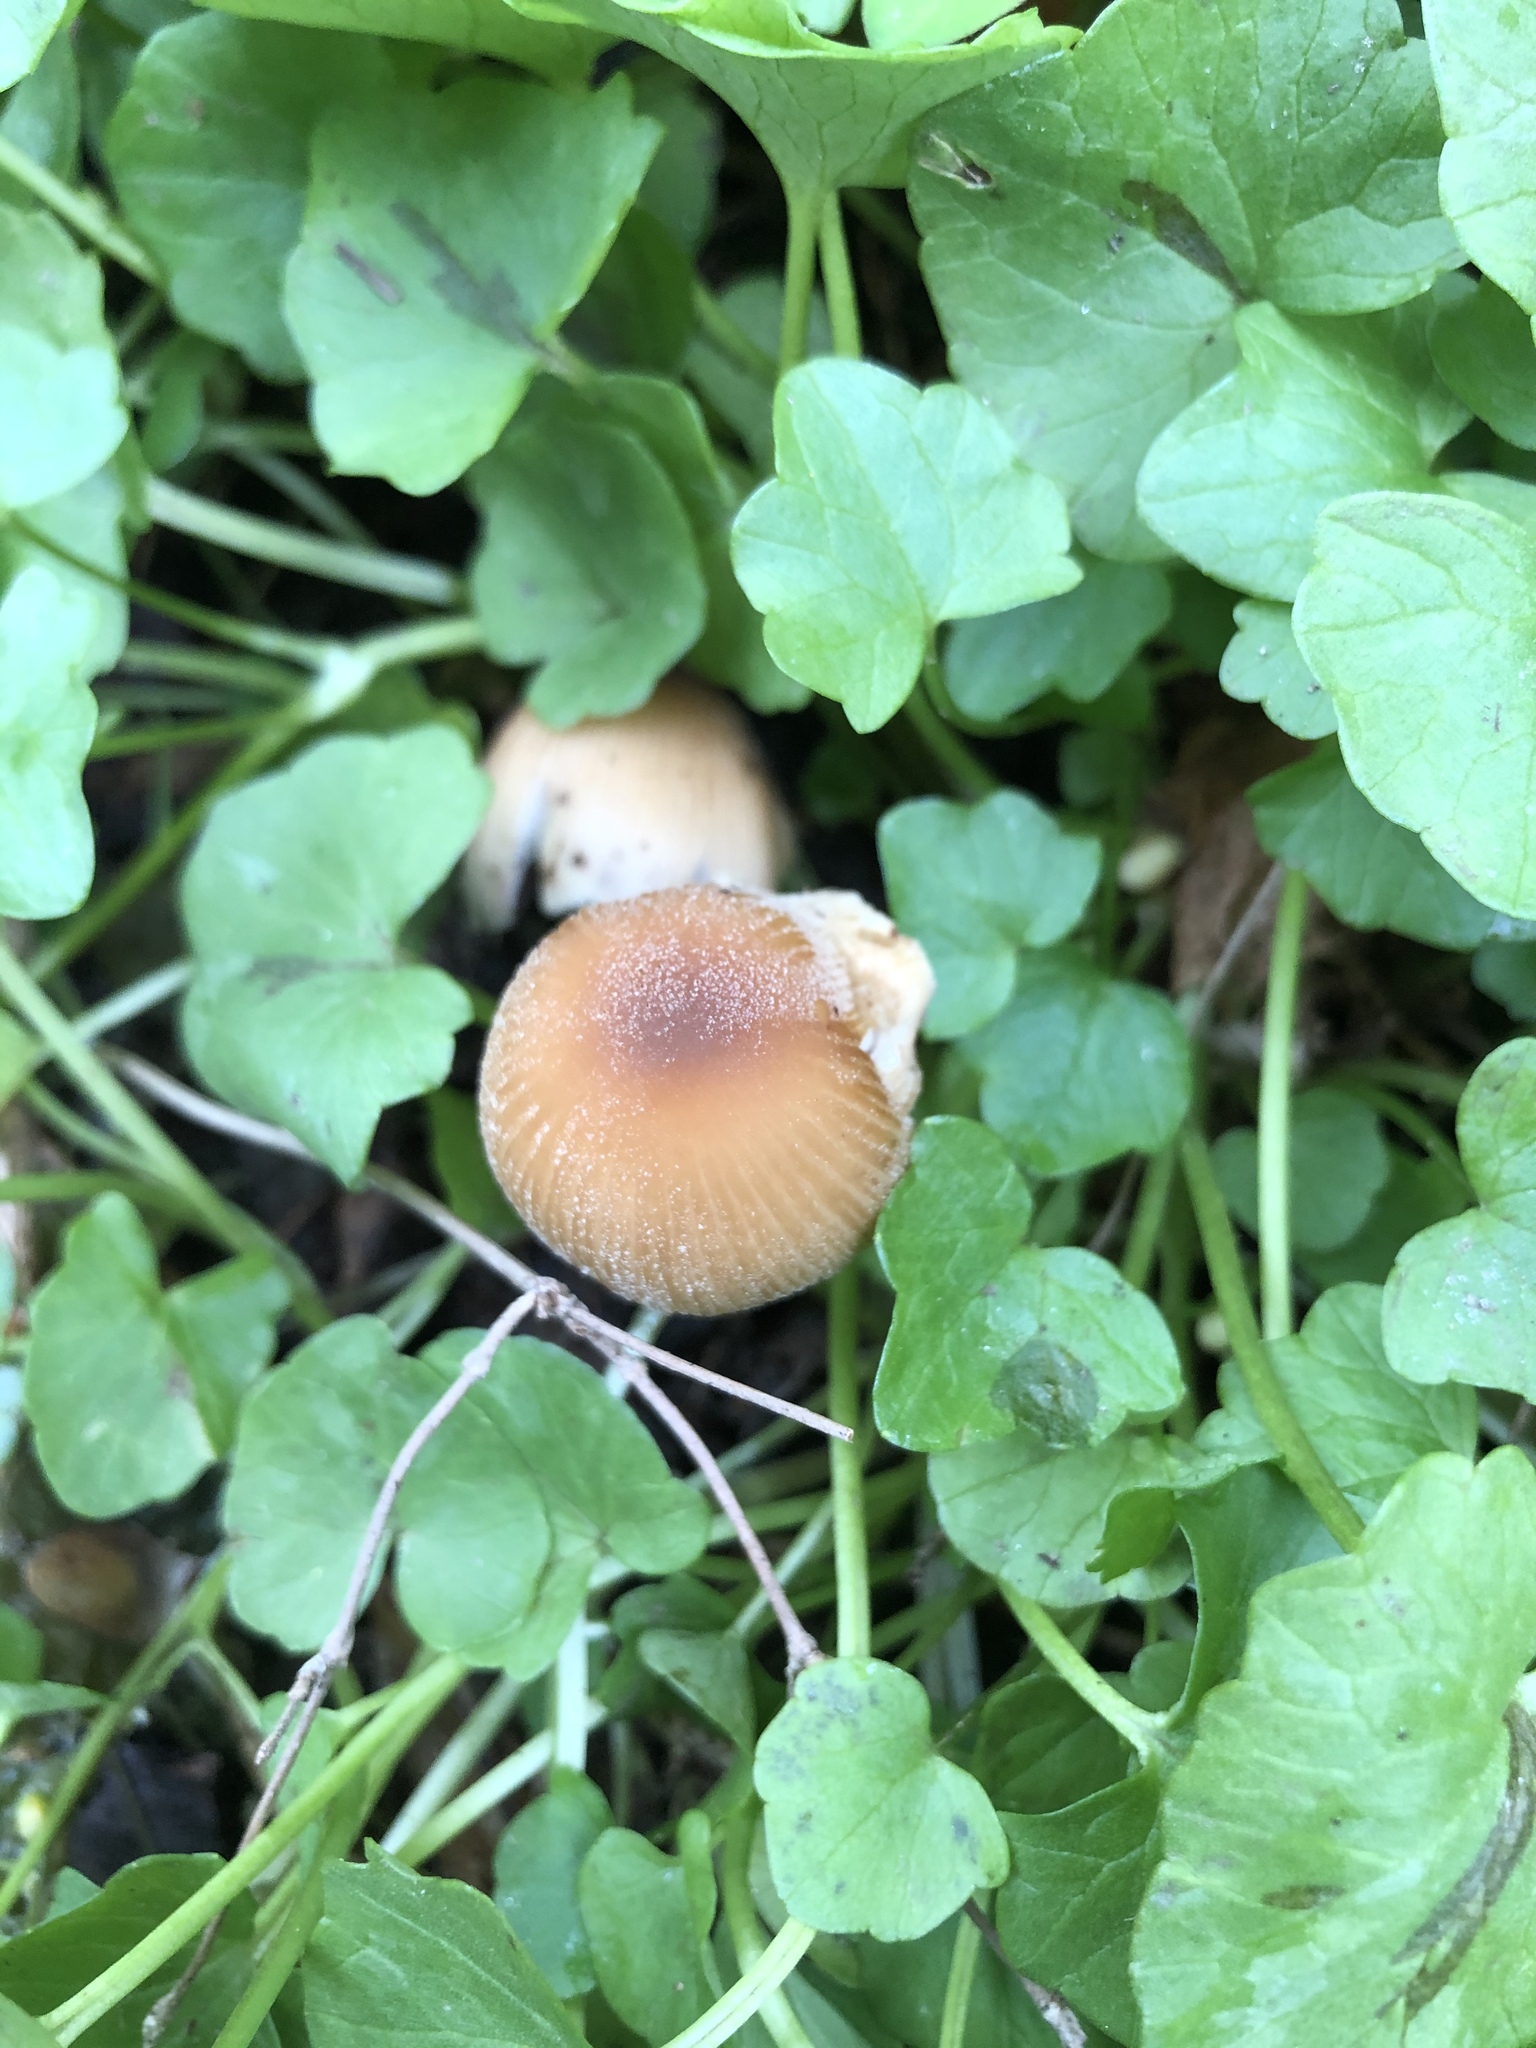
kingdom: Fungi
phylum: Basidiomycota
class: Agaricomycetes
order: Agaricales
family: Psathyrellaceae
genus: Coprinellus
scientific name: Coprinellus micaceus
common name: Glistening ink-cap
